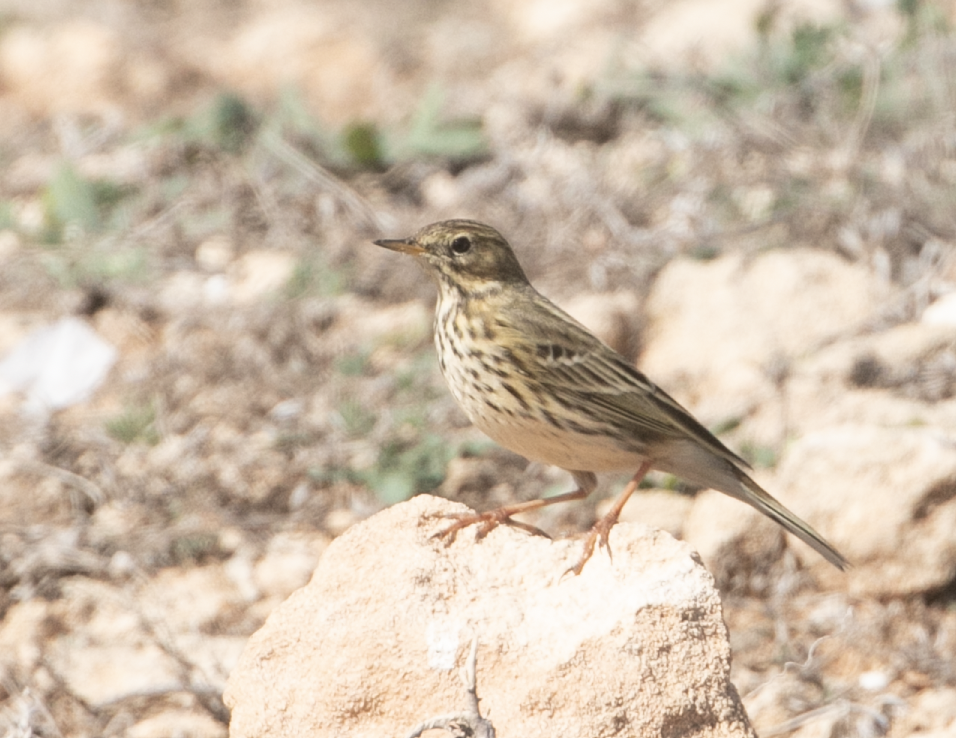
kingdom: Animalia
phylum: Chordata
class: Aves
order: Passeriformes
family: Motacillidae
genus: Anthus
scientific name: Anthus pratensis
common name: Meadow pipit
